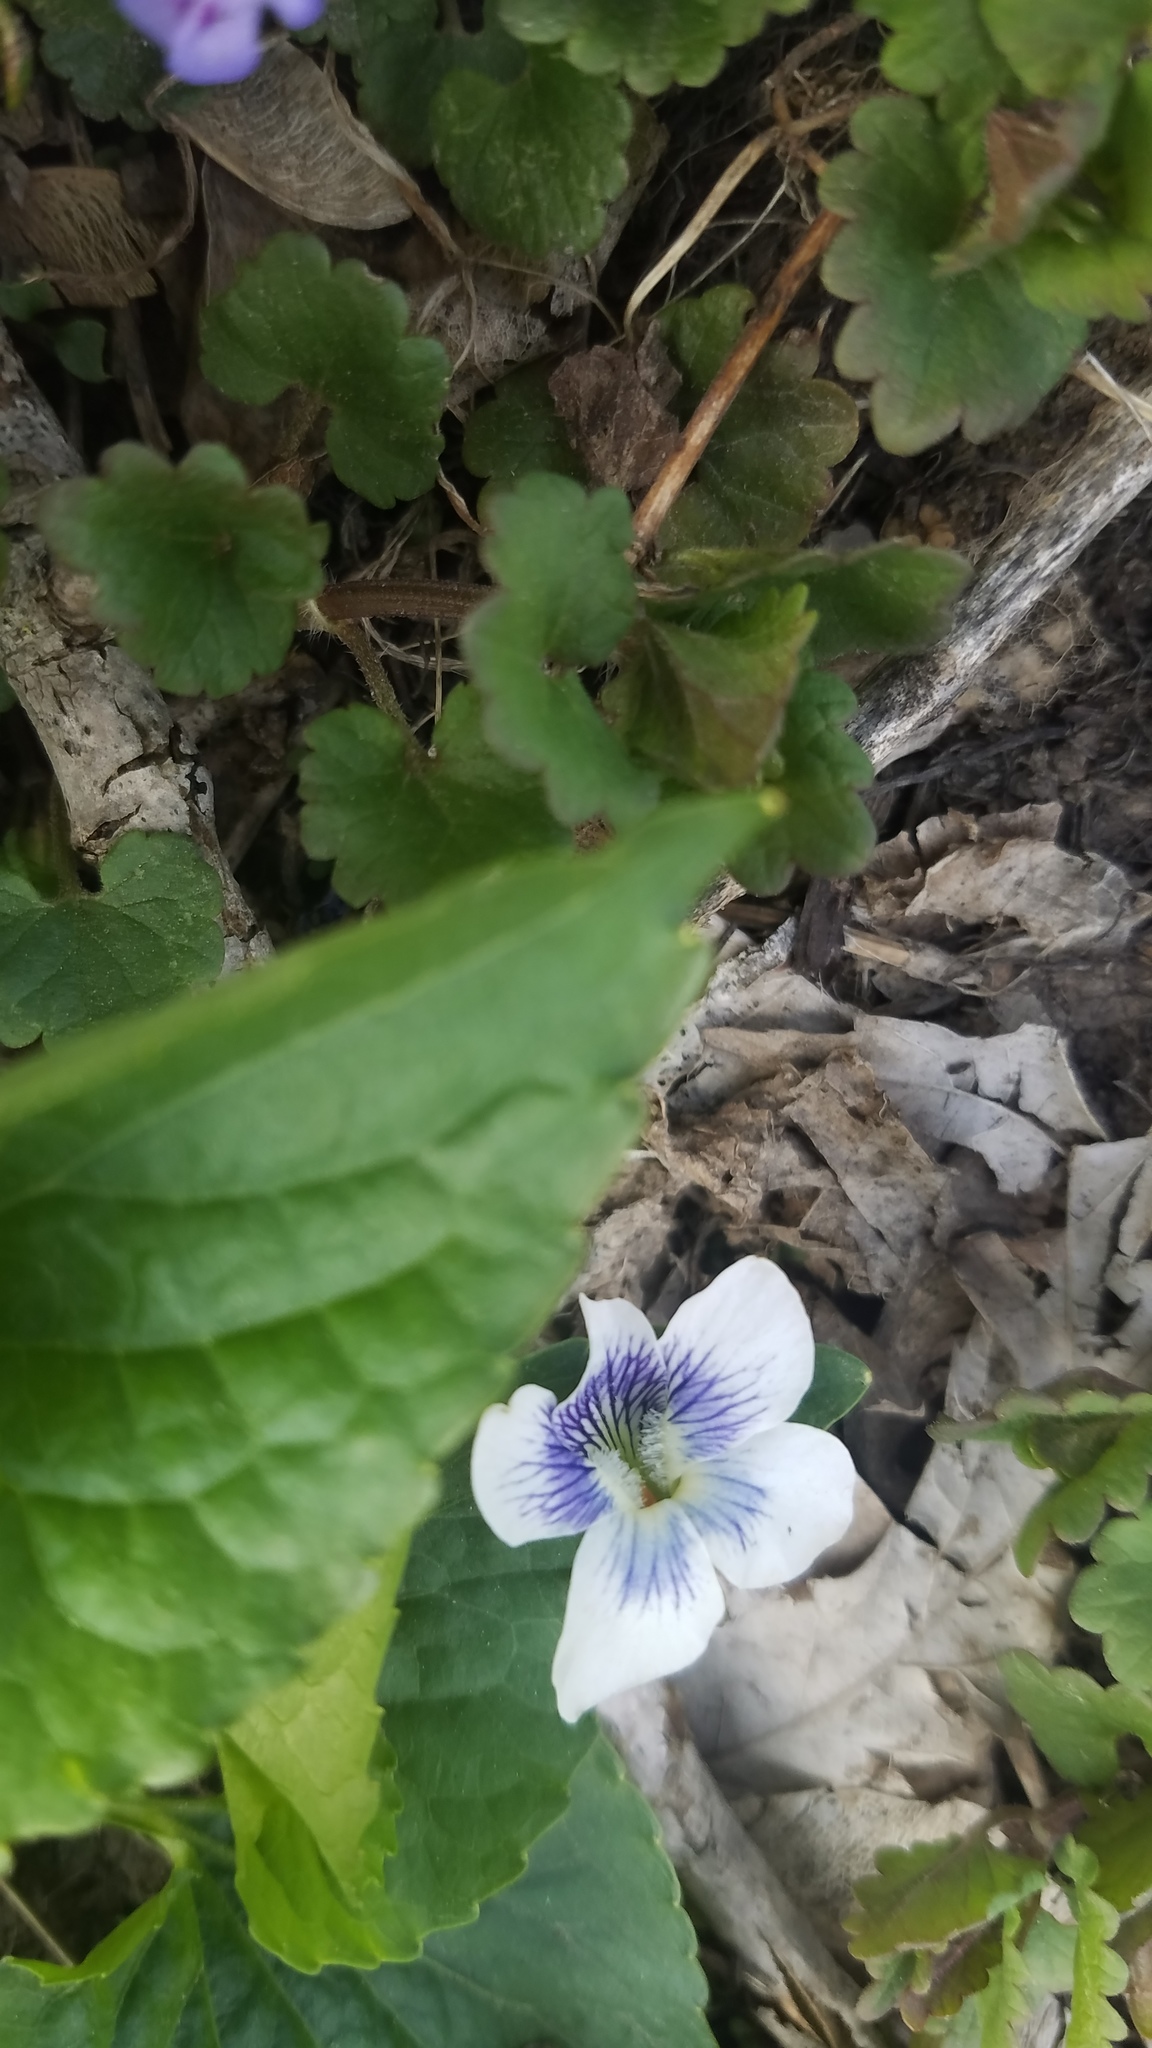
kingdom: Plantae
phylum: Tracheophyta
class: Magnoliopsida
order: Malpighiales
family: Violaceae
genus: Viola
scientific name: Viola sororia
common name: Dooryard violet
